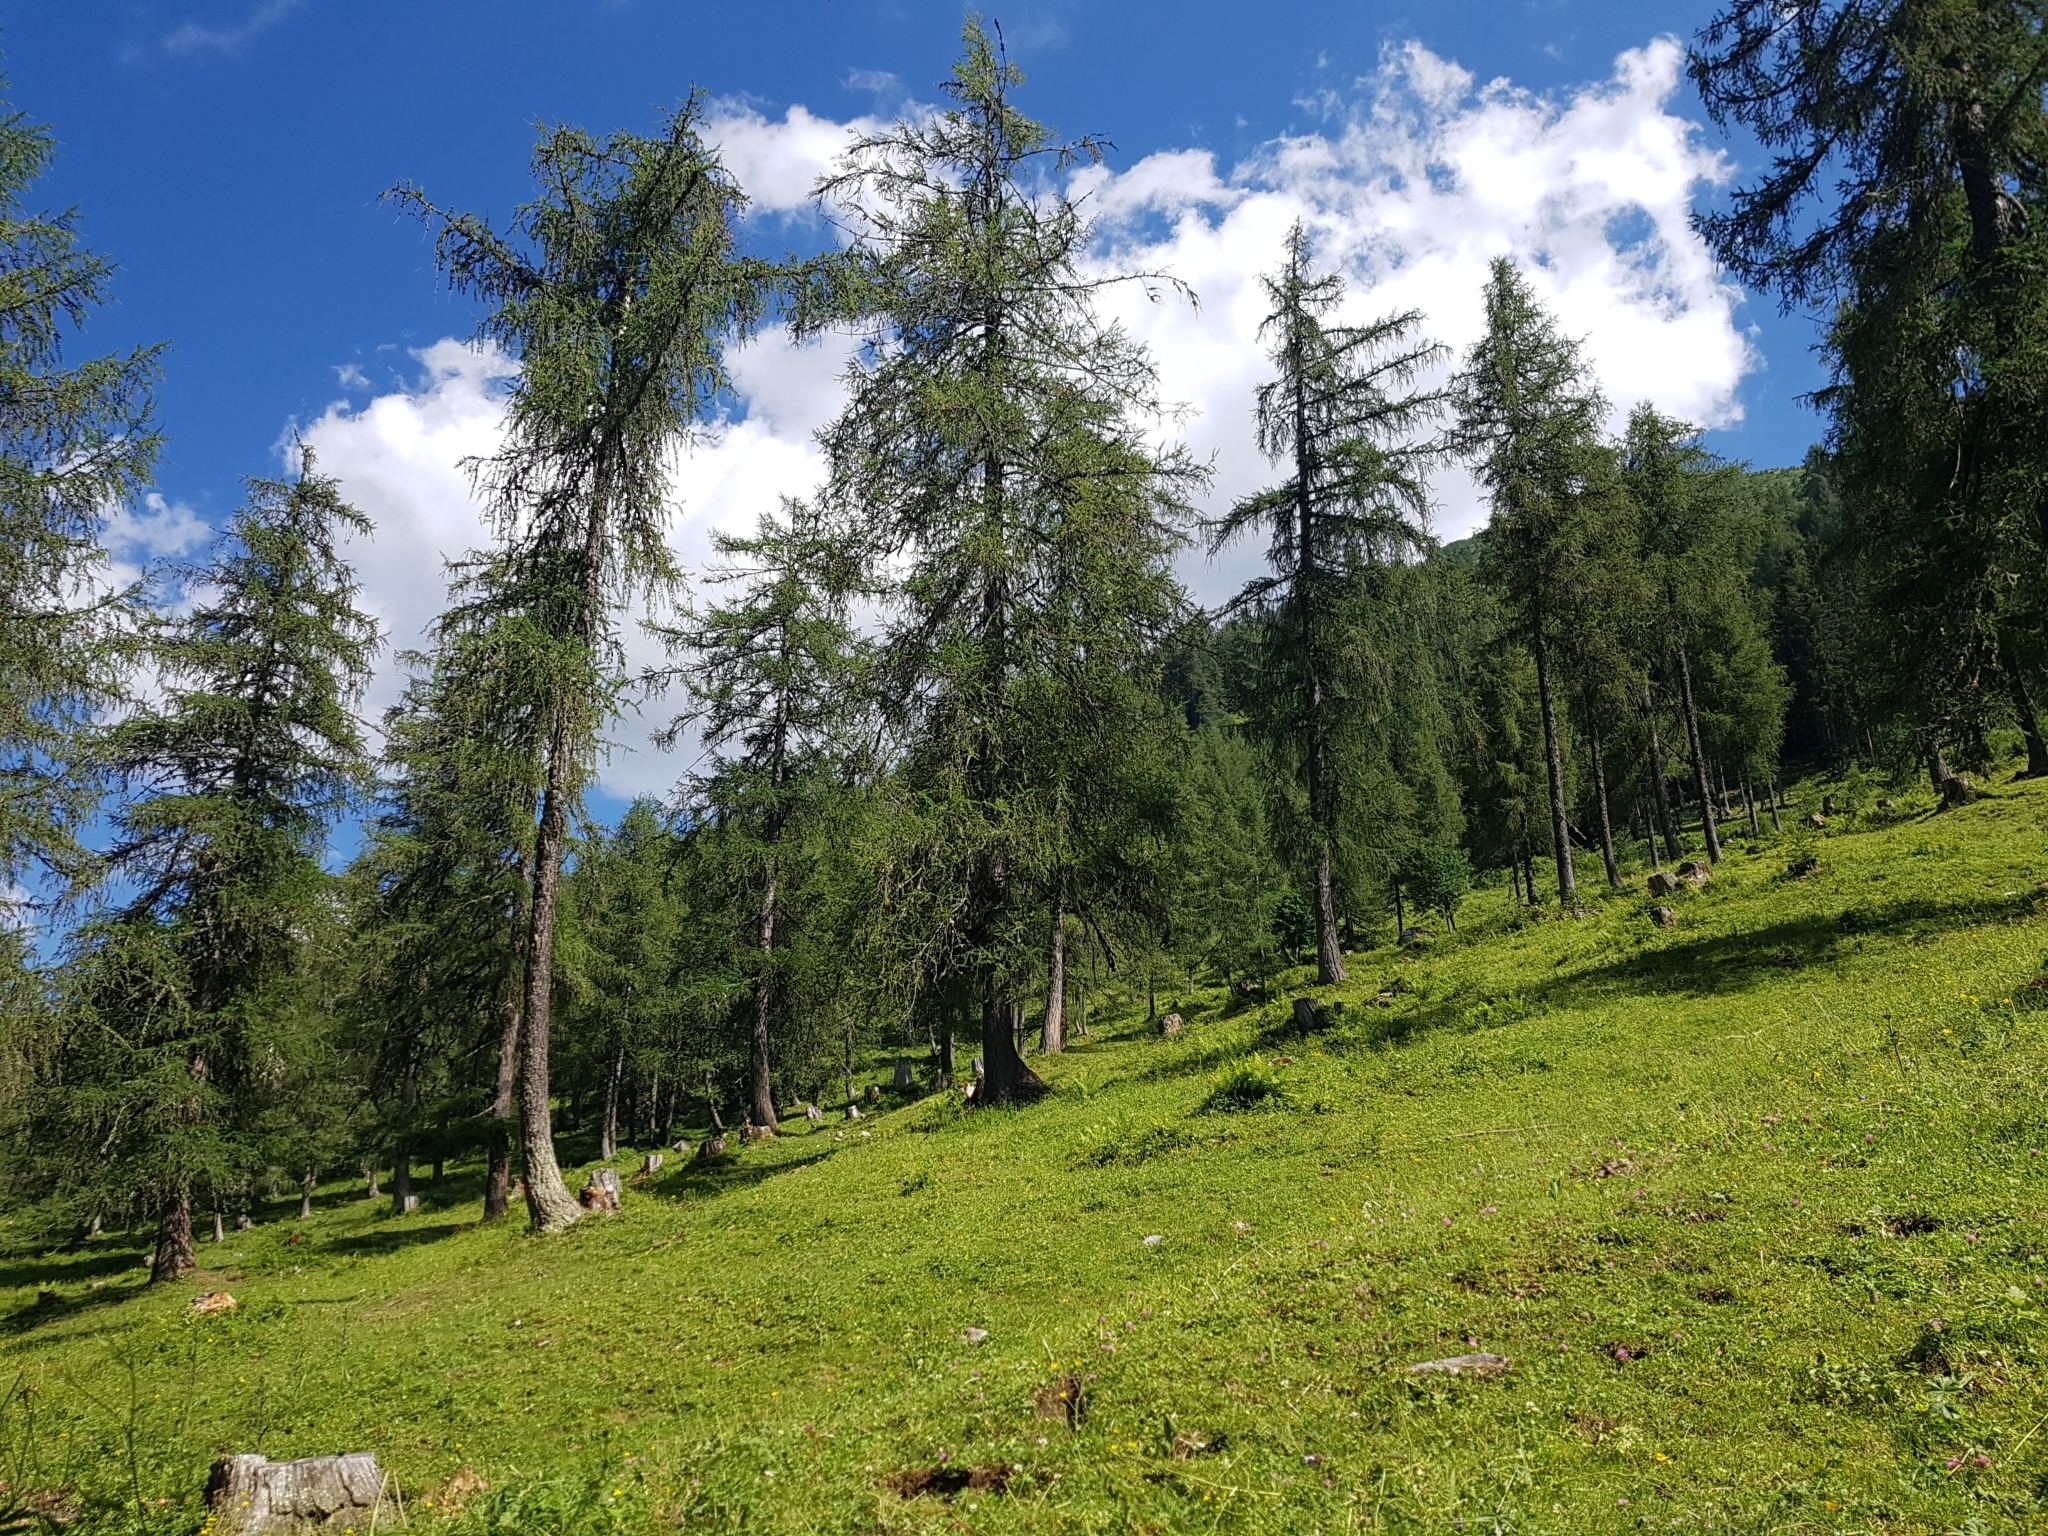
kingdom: Plantae
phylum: Tracheophyta
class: Pinopsida
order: Pinales
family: Pinaceae
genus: Larix
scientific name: Larix decidua
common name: European larch
